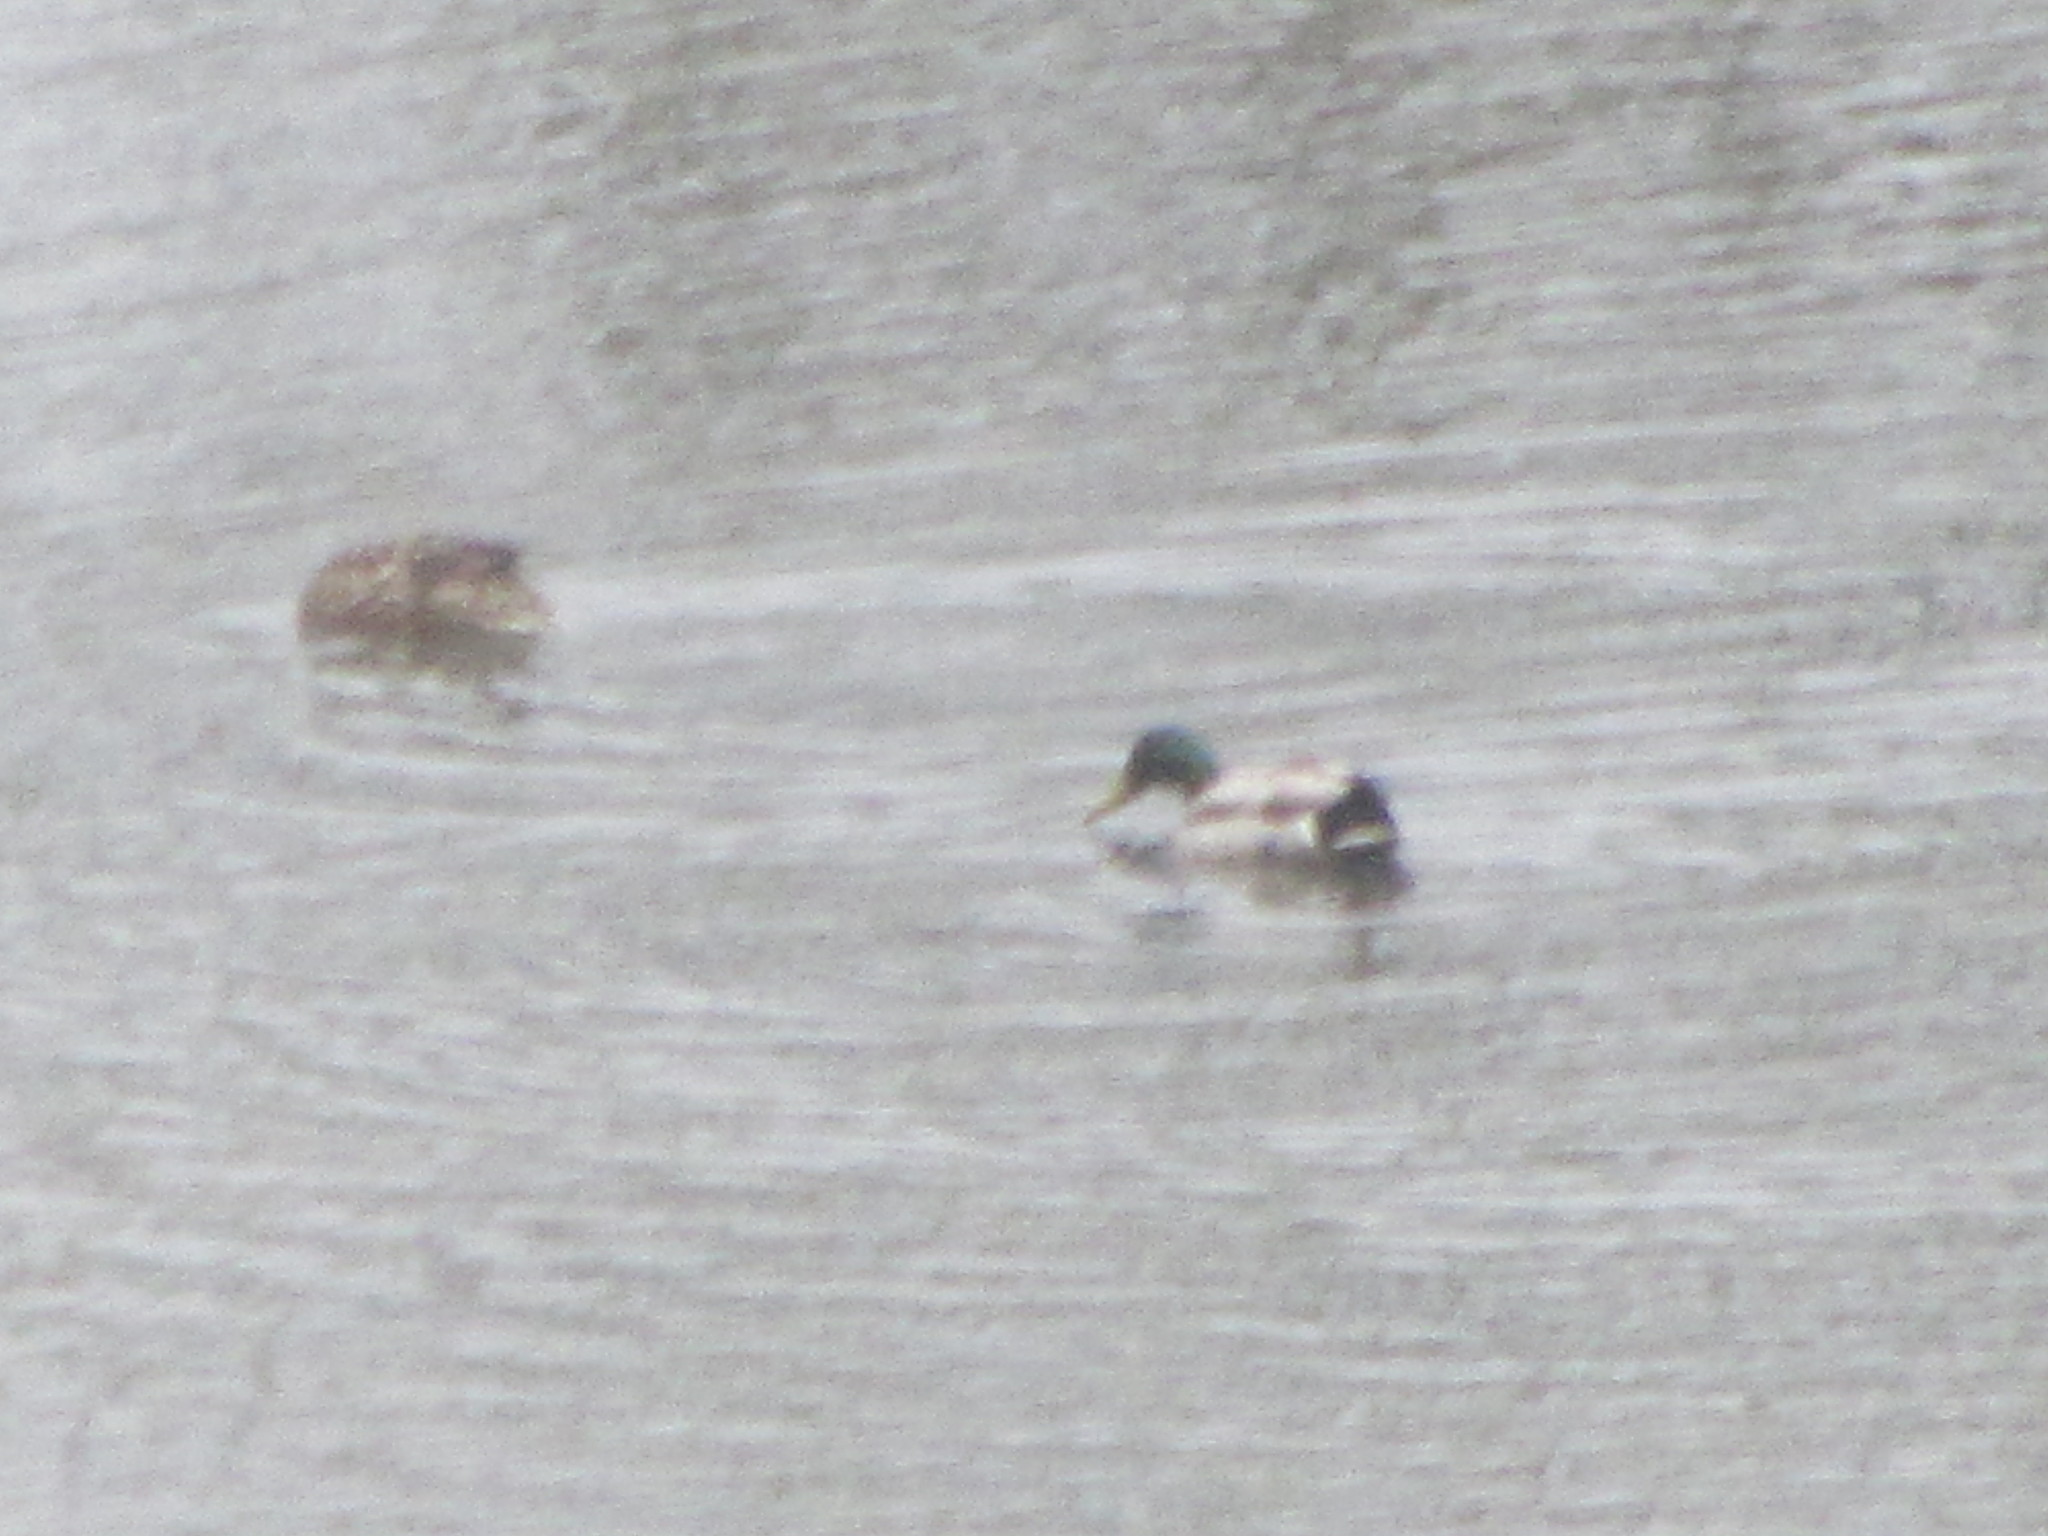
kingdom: Animalia
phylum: Chordata
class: Aves
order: Anseriformes
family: Anatidae
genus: Anas
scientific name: Anas platyrhynchos
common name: Mallard
